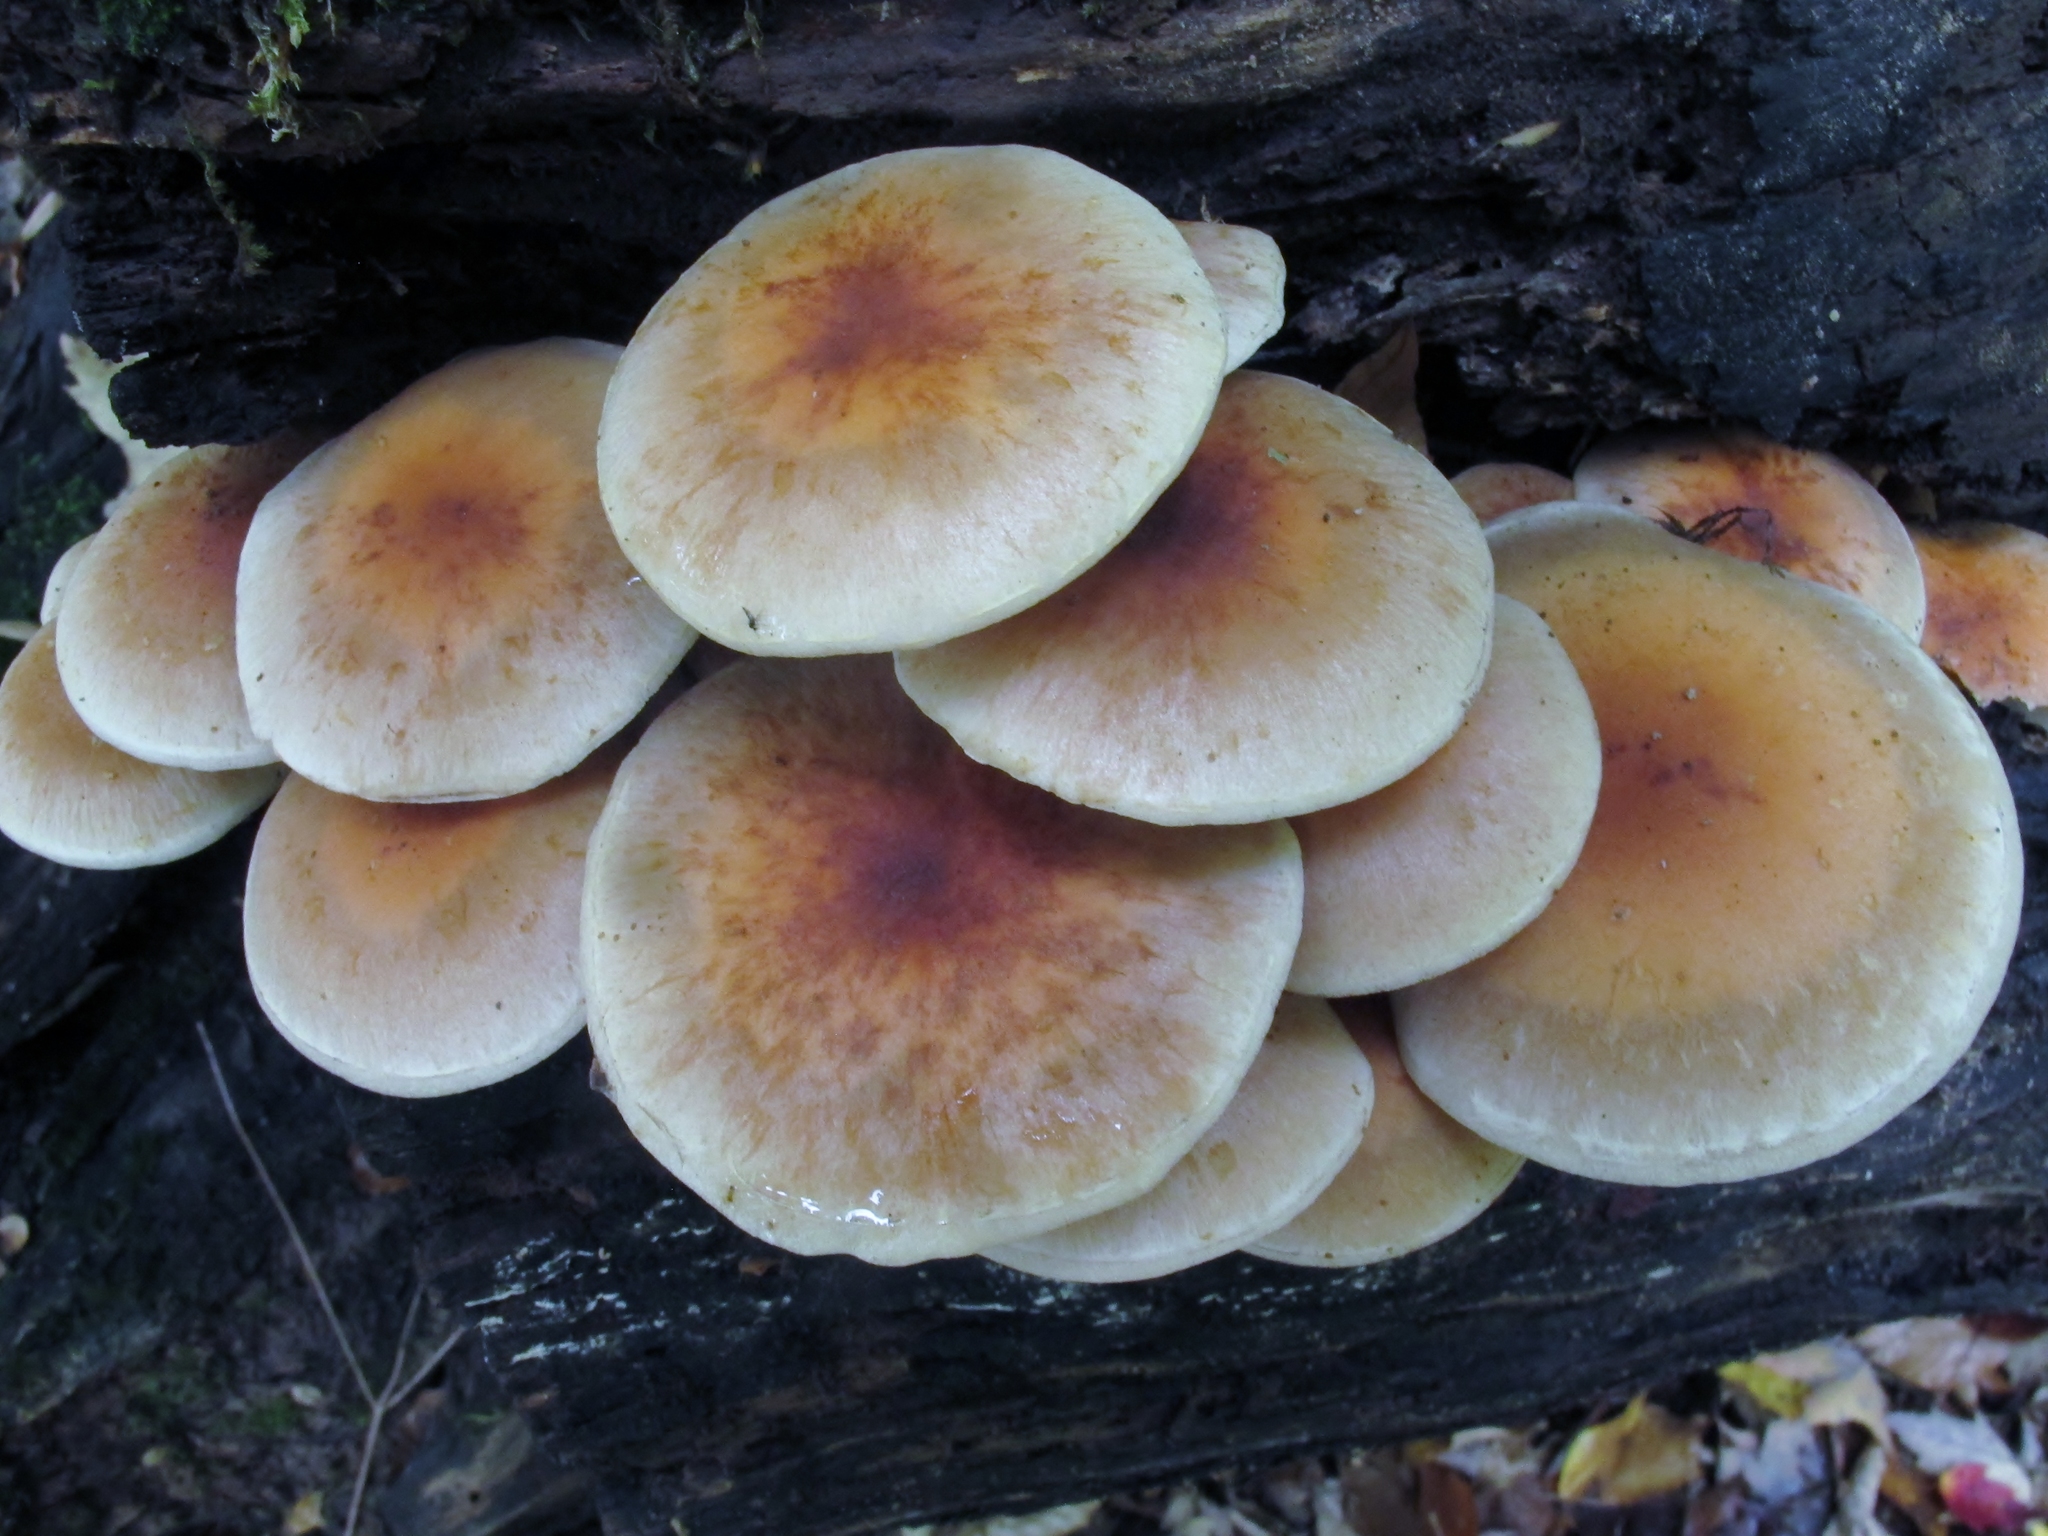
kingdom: Fungi
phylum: Basidiomycota
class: Agaricomycetes
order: Agaricales
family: Strophariaceae
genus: Hypholoma
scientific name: Hypholoma lateritium
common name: Brick caps
